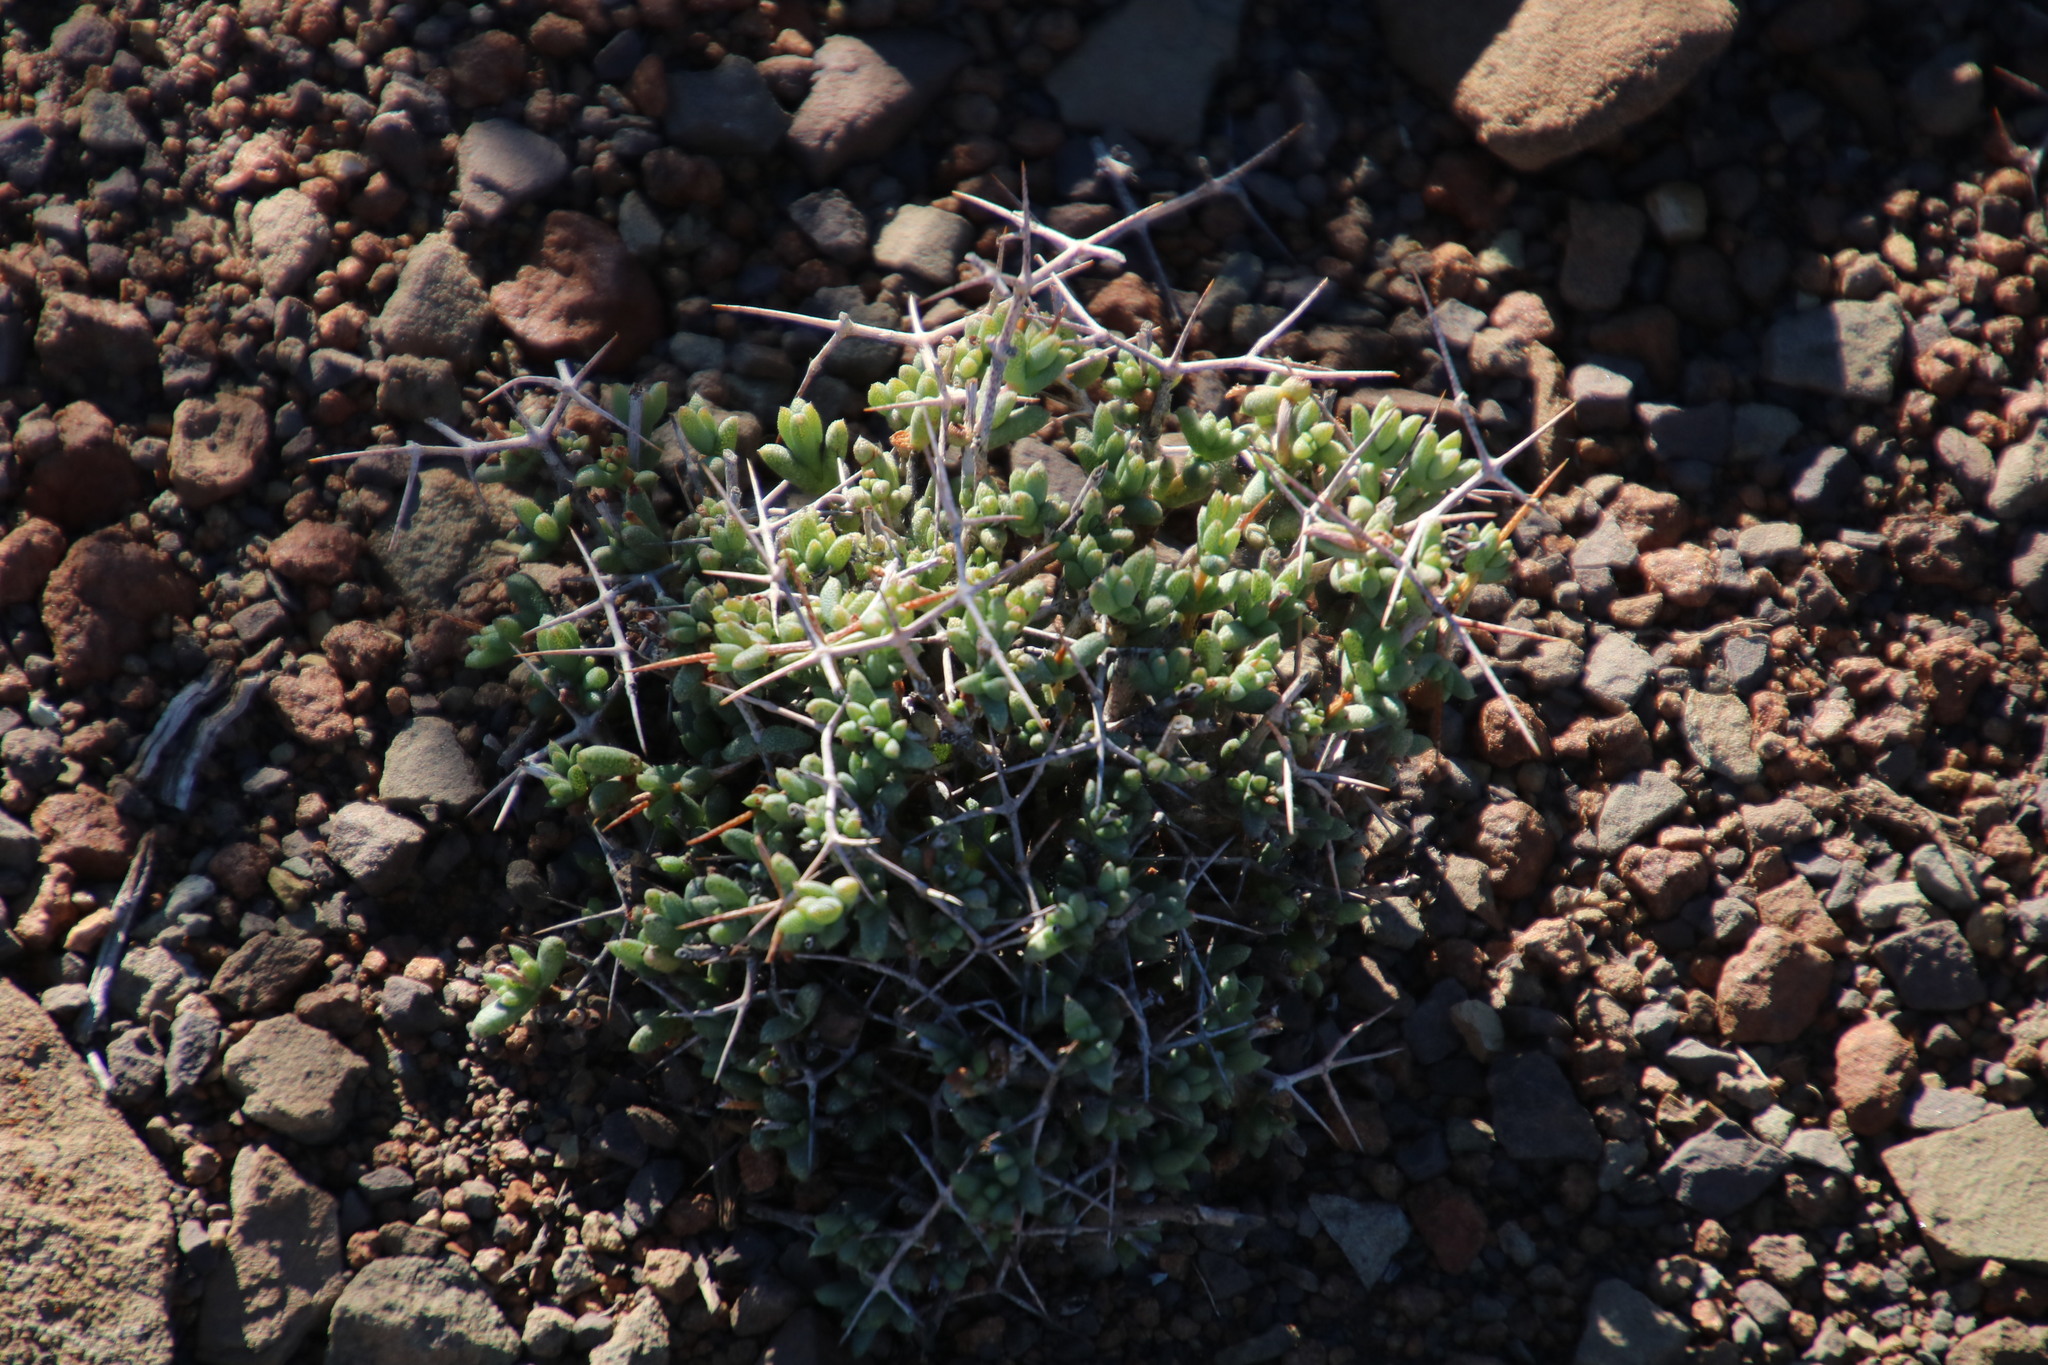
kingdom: Plantae
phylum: Tracheophyta
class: Magnoliopsida
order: Caryophyllales
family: Aizoaceae
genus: Ruschia
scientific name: Ruschia spinosa
